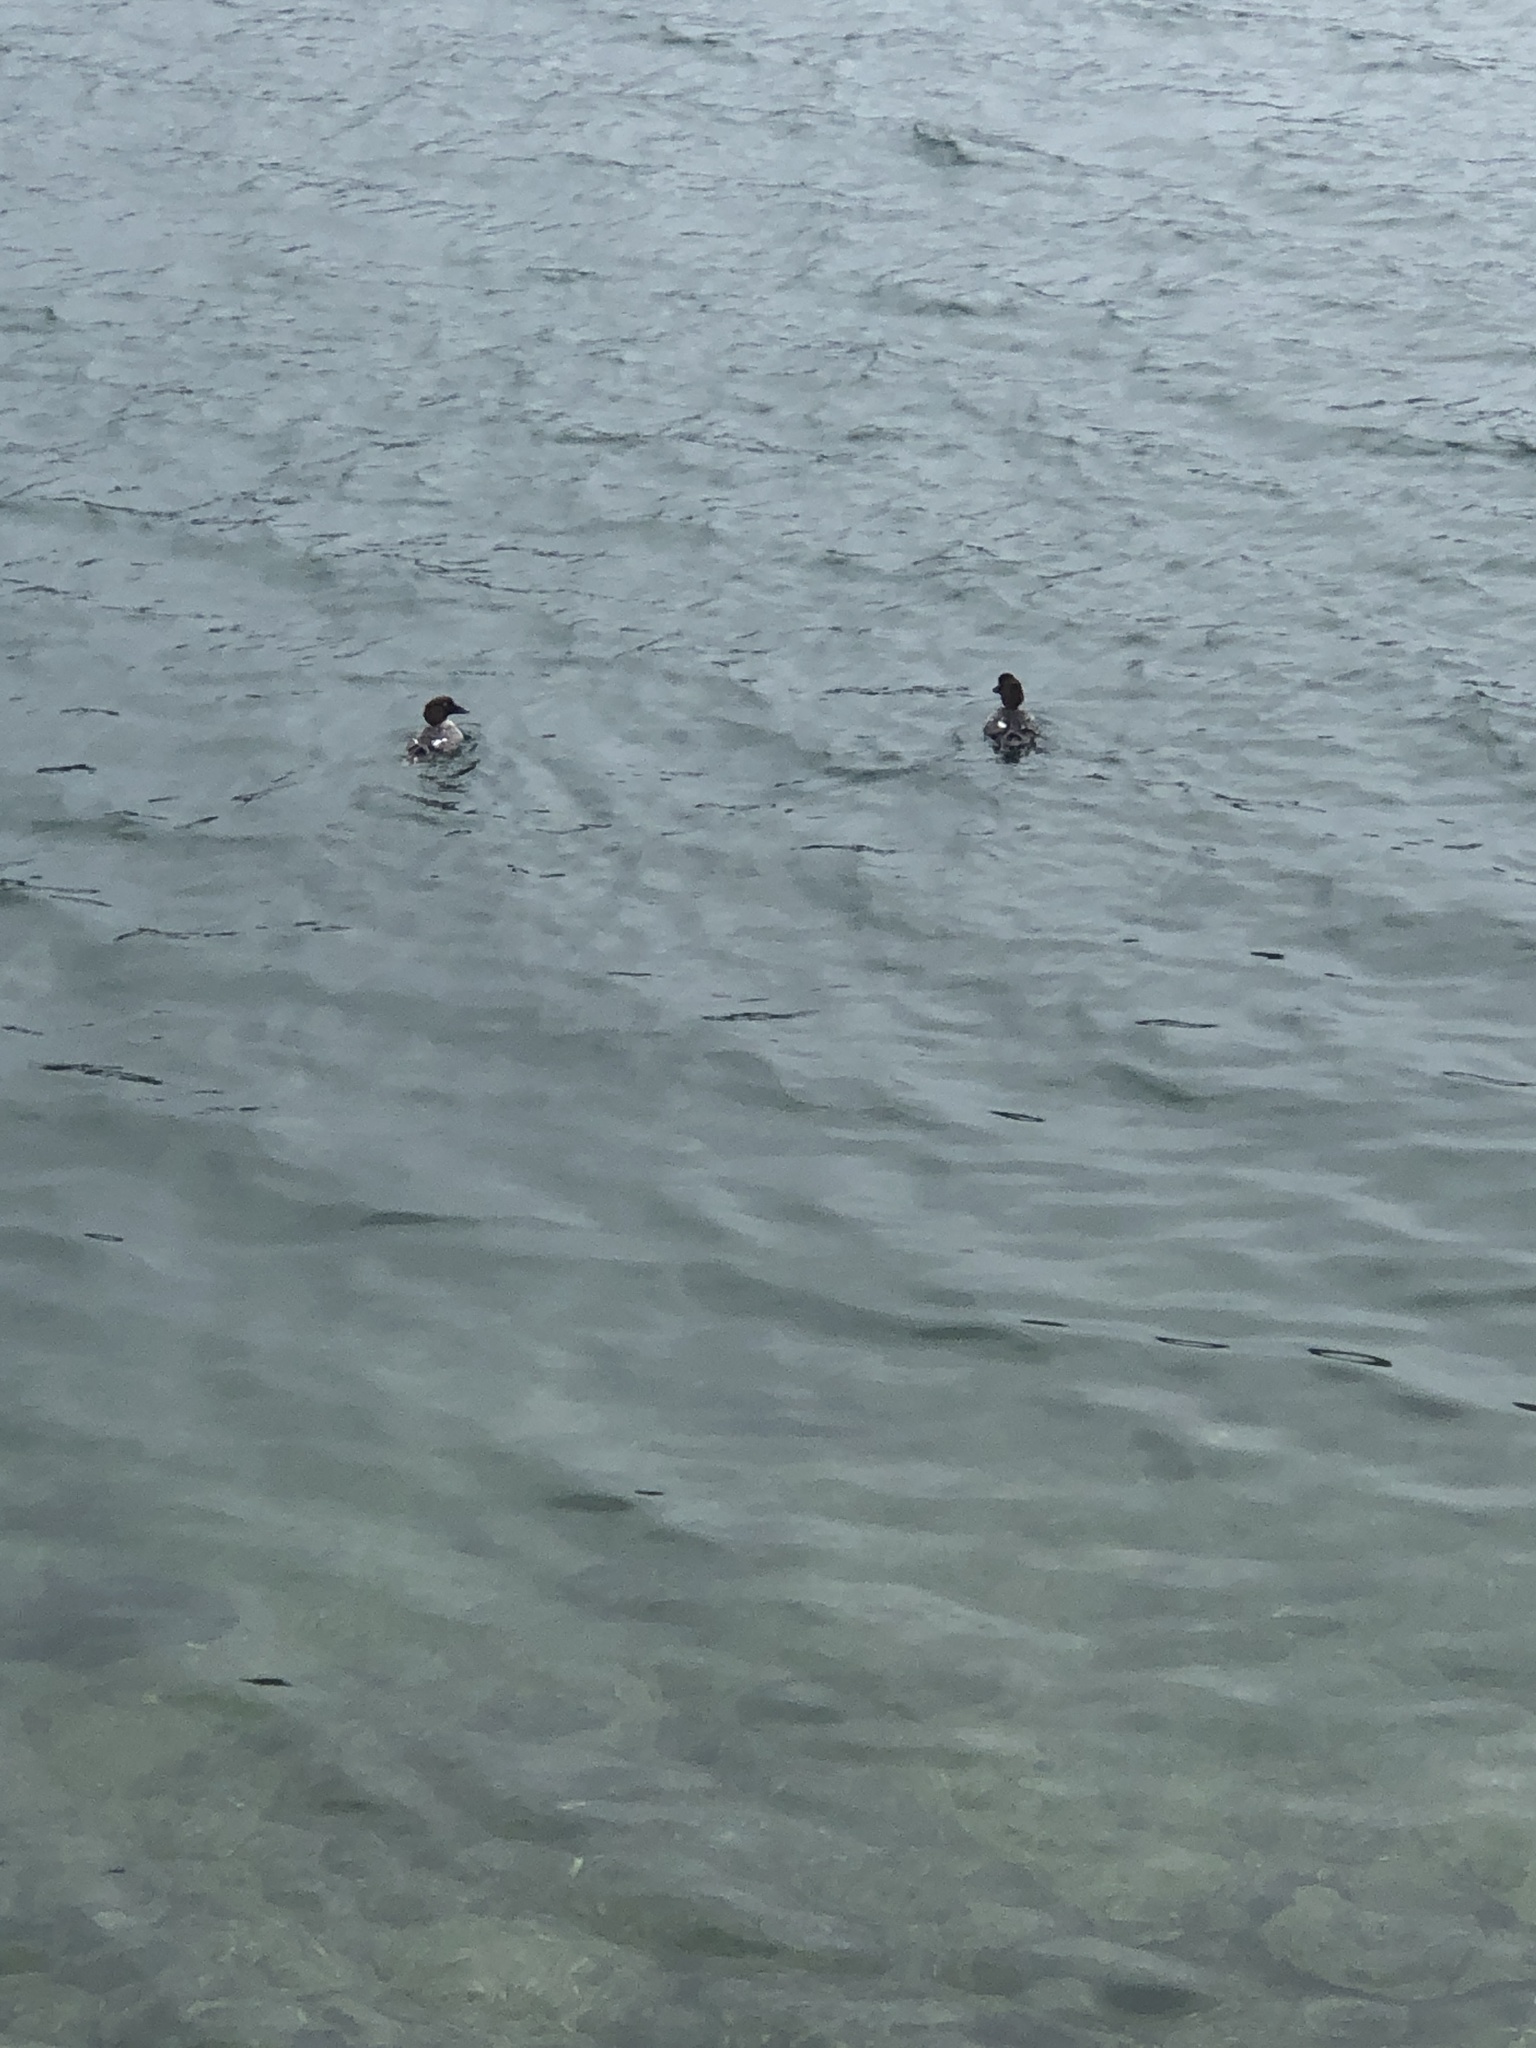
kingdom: Animalia
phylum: Chordata
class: Aves
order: Anseriformes
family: Anatidae
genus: Bucephala
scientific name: Bucephala clangula
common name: Common goldeneye
